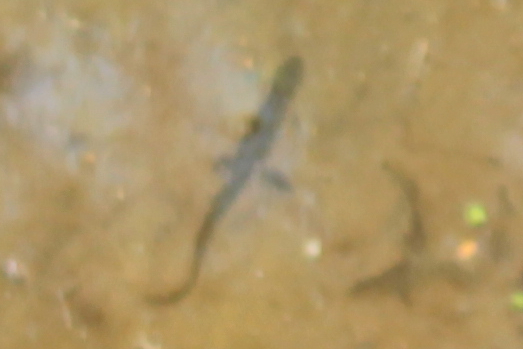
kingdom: Animalia
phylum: Chordata
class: Amphibia
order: Caudata
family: Salamandridae
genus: Notophthalmus
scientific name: Notophthalmus viridescens
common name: Eastern newt
